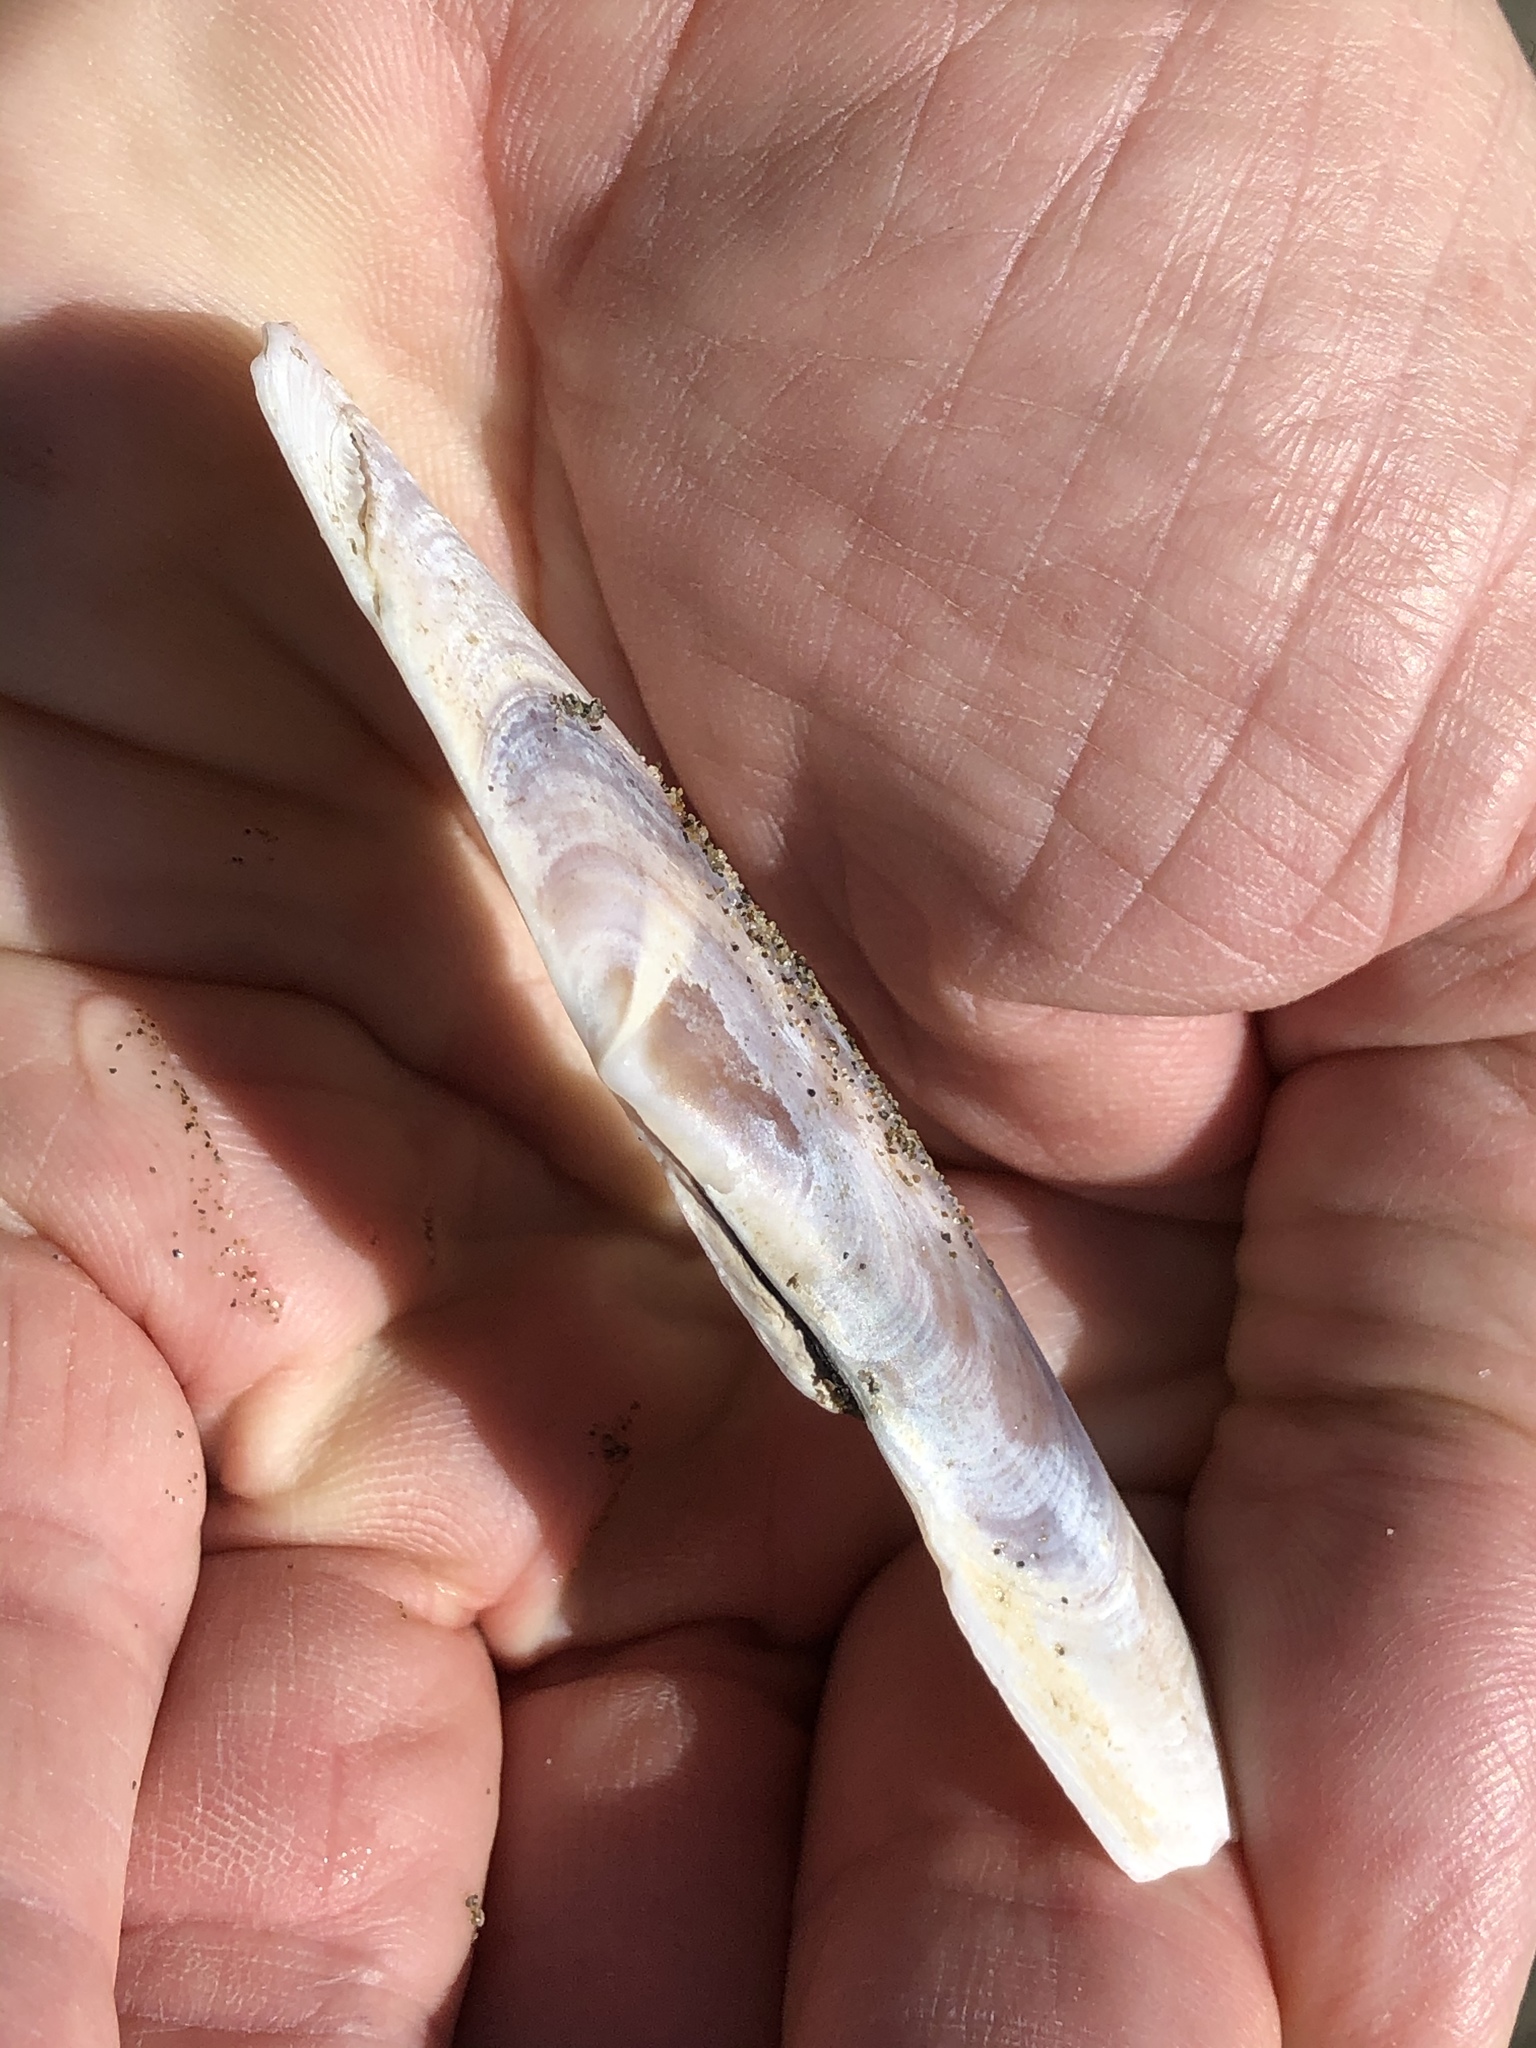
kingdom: Animalia
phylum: Mollusca
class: Bivalvia
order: Adapedonta
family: Pharidae
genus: Siliqua
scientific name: Siliqua patula
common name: Pacific razor clam
